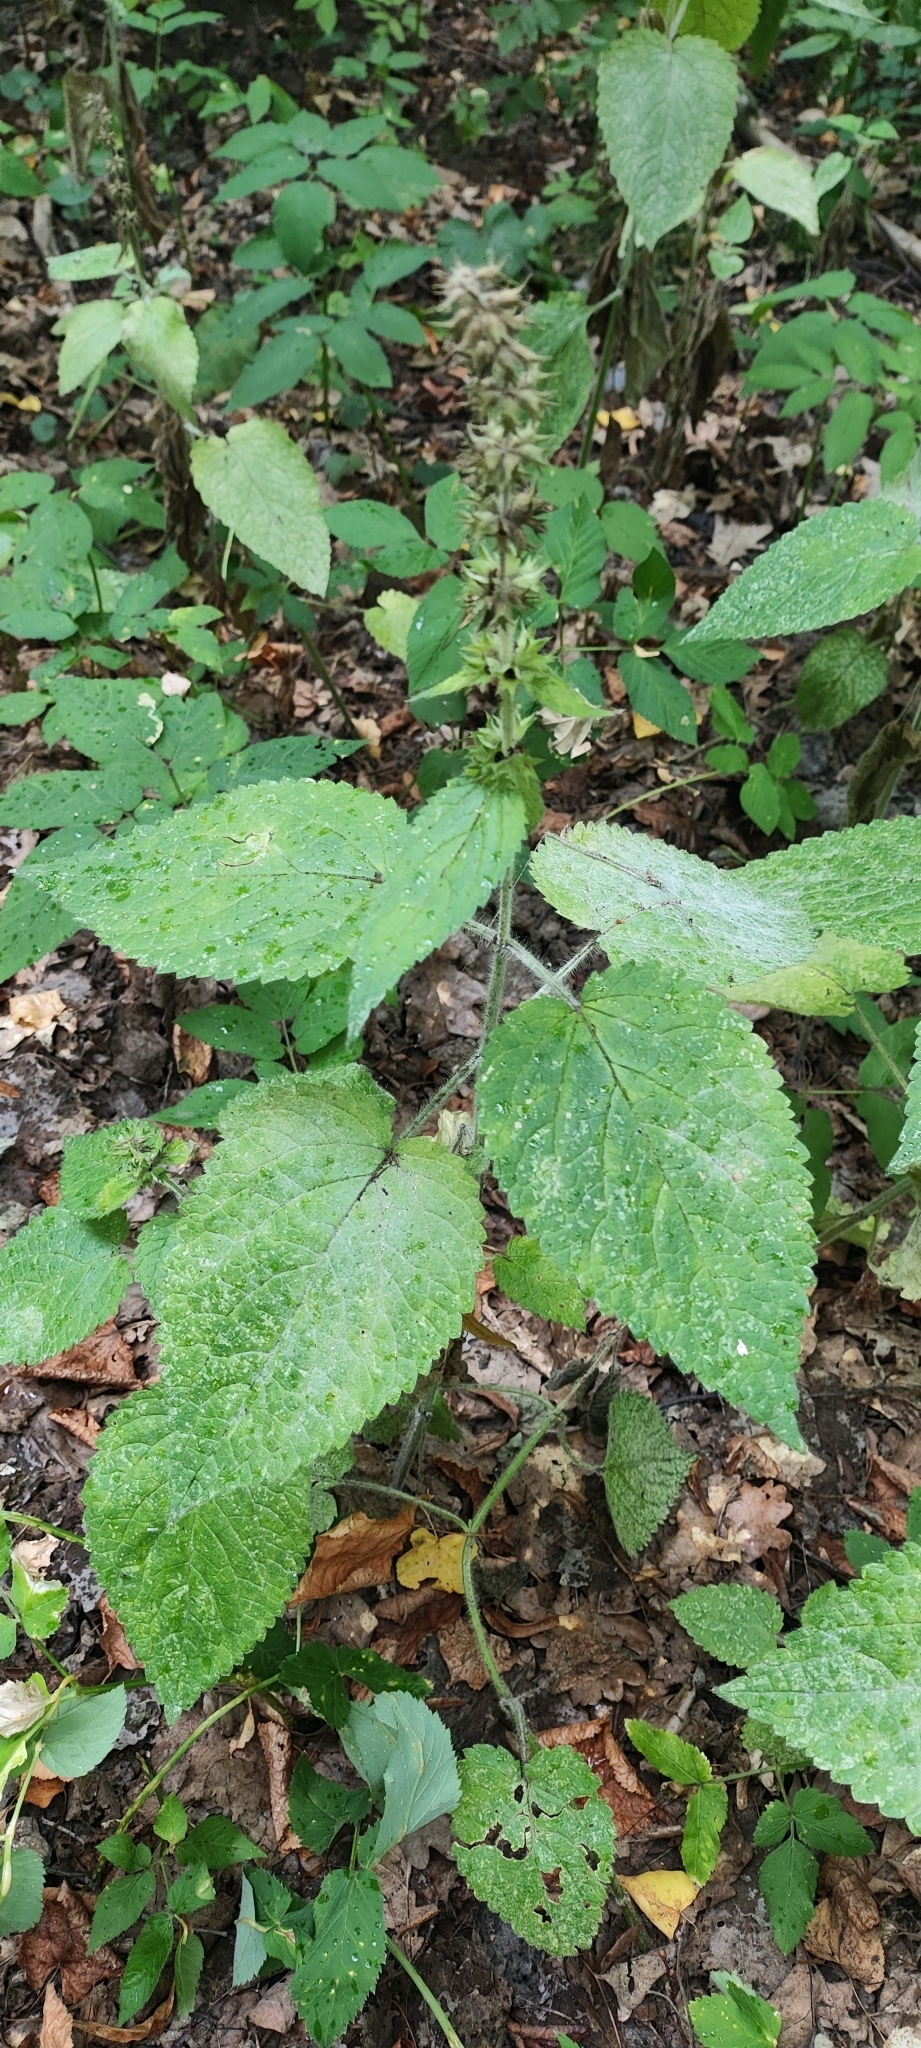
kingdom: Plantae
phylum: Tracheophyta
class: Magnoliopsida
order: Lamiales
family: Lamiaceae
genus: Stachys
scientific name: Stachys sylvatica
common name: Hedge woundwort
